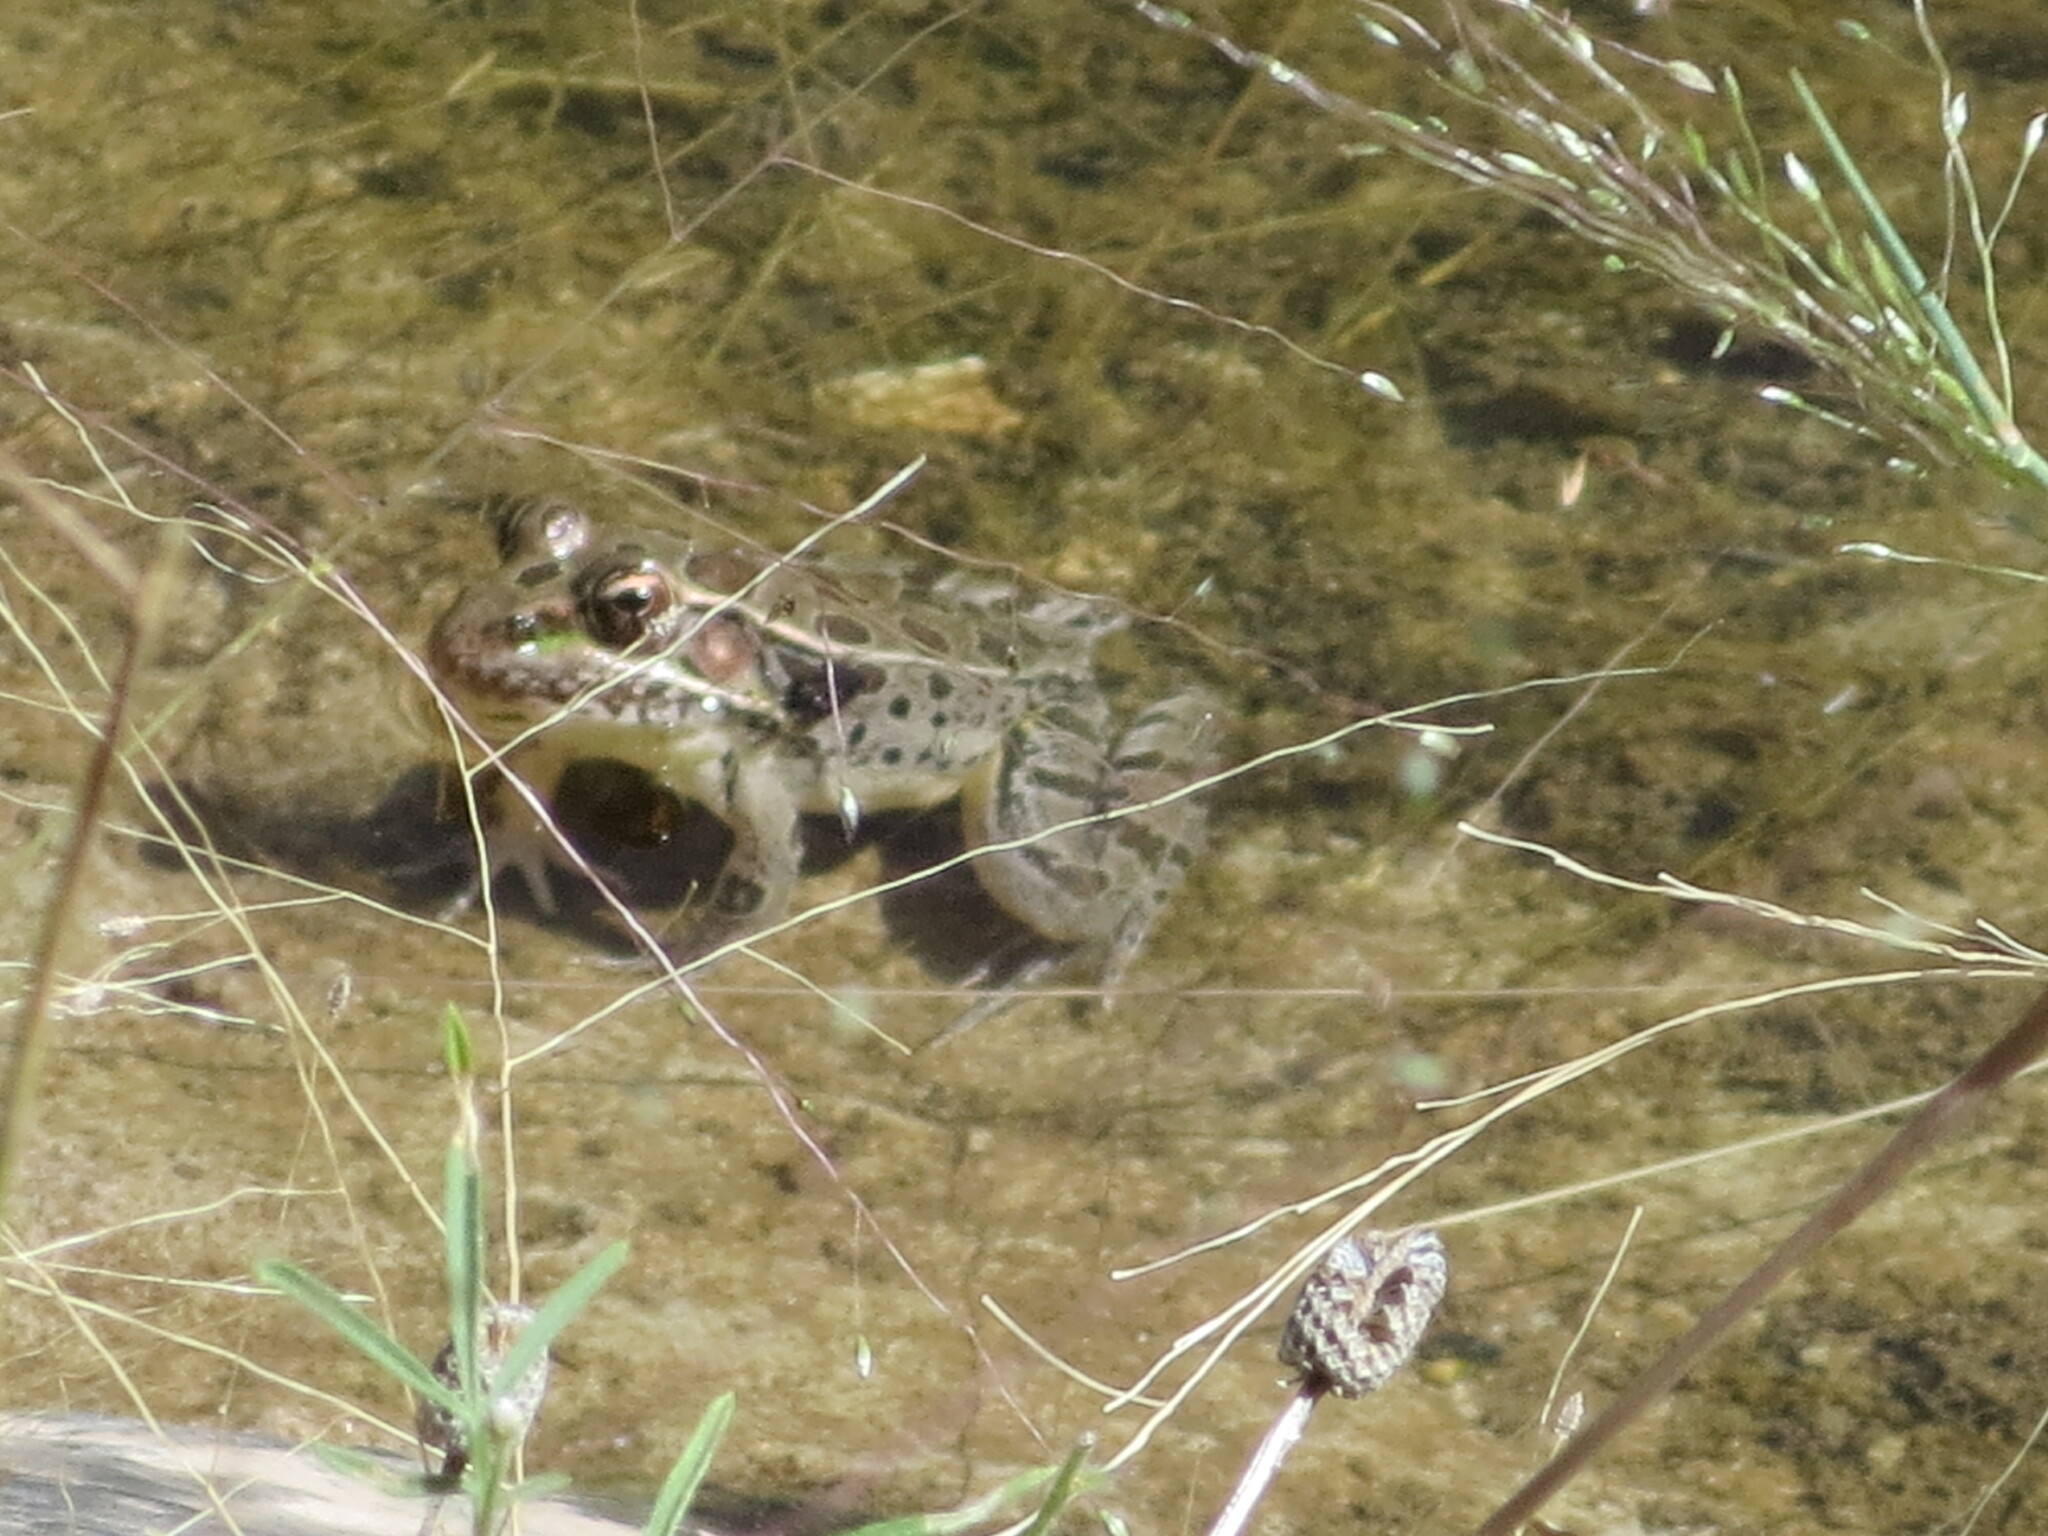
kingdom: Animalia
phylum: Chordata
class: Amphibia
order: Anura
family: Ranidae
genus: Lithobates
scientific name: Lithobates berlandieri
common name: Rio grande leopard frog
